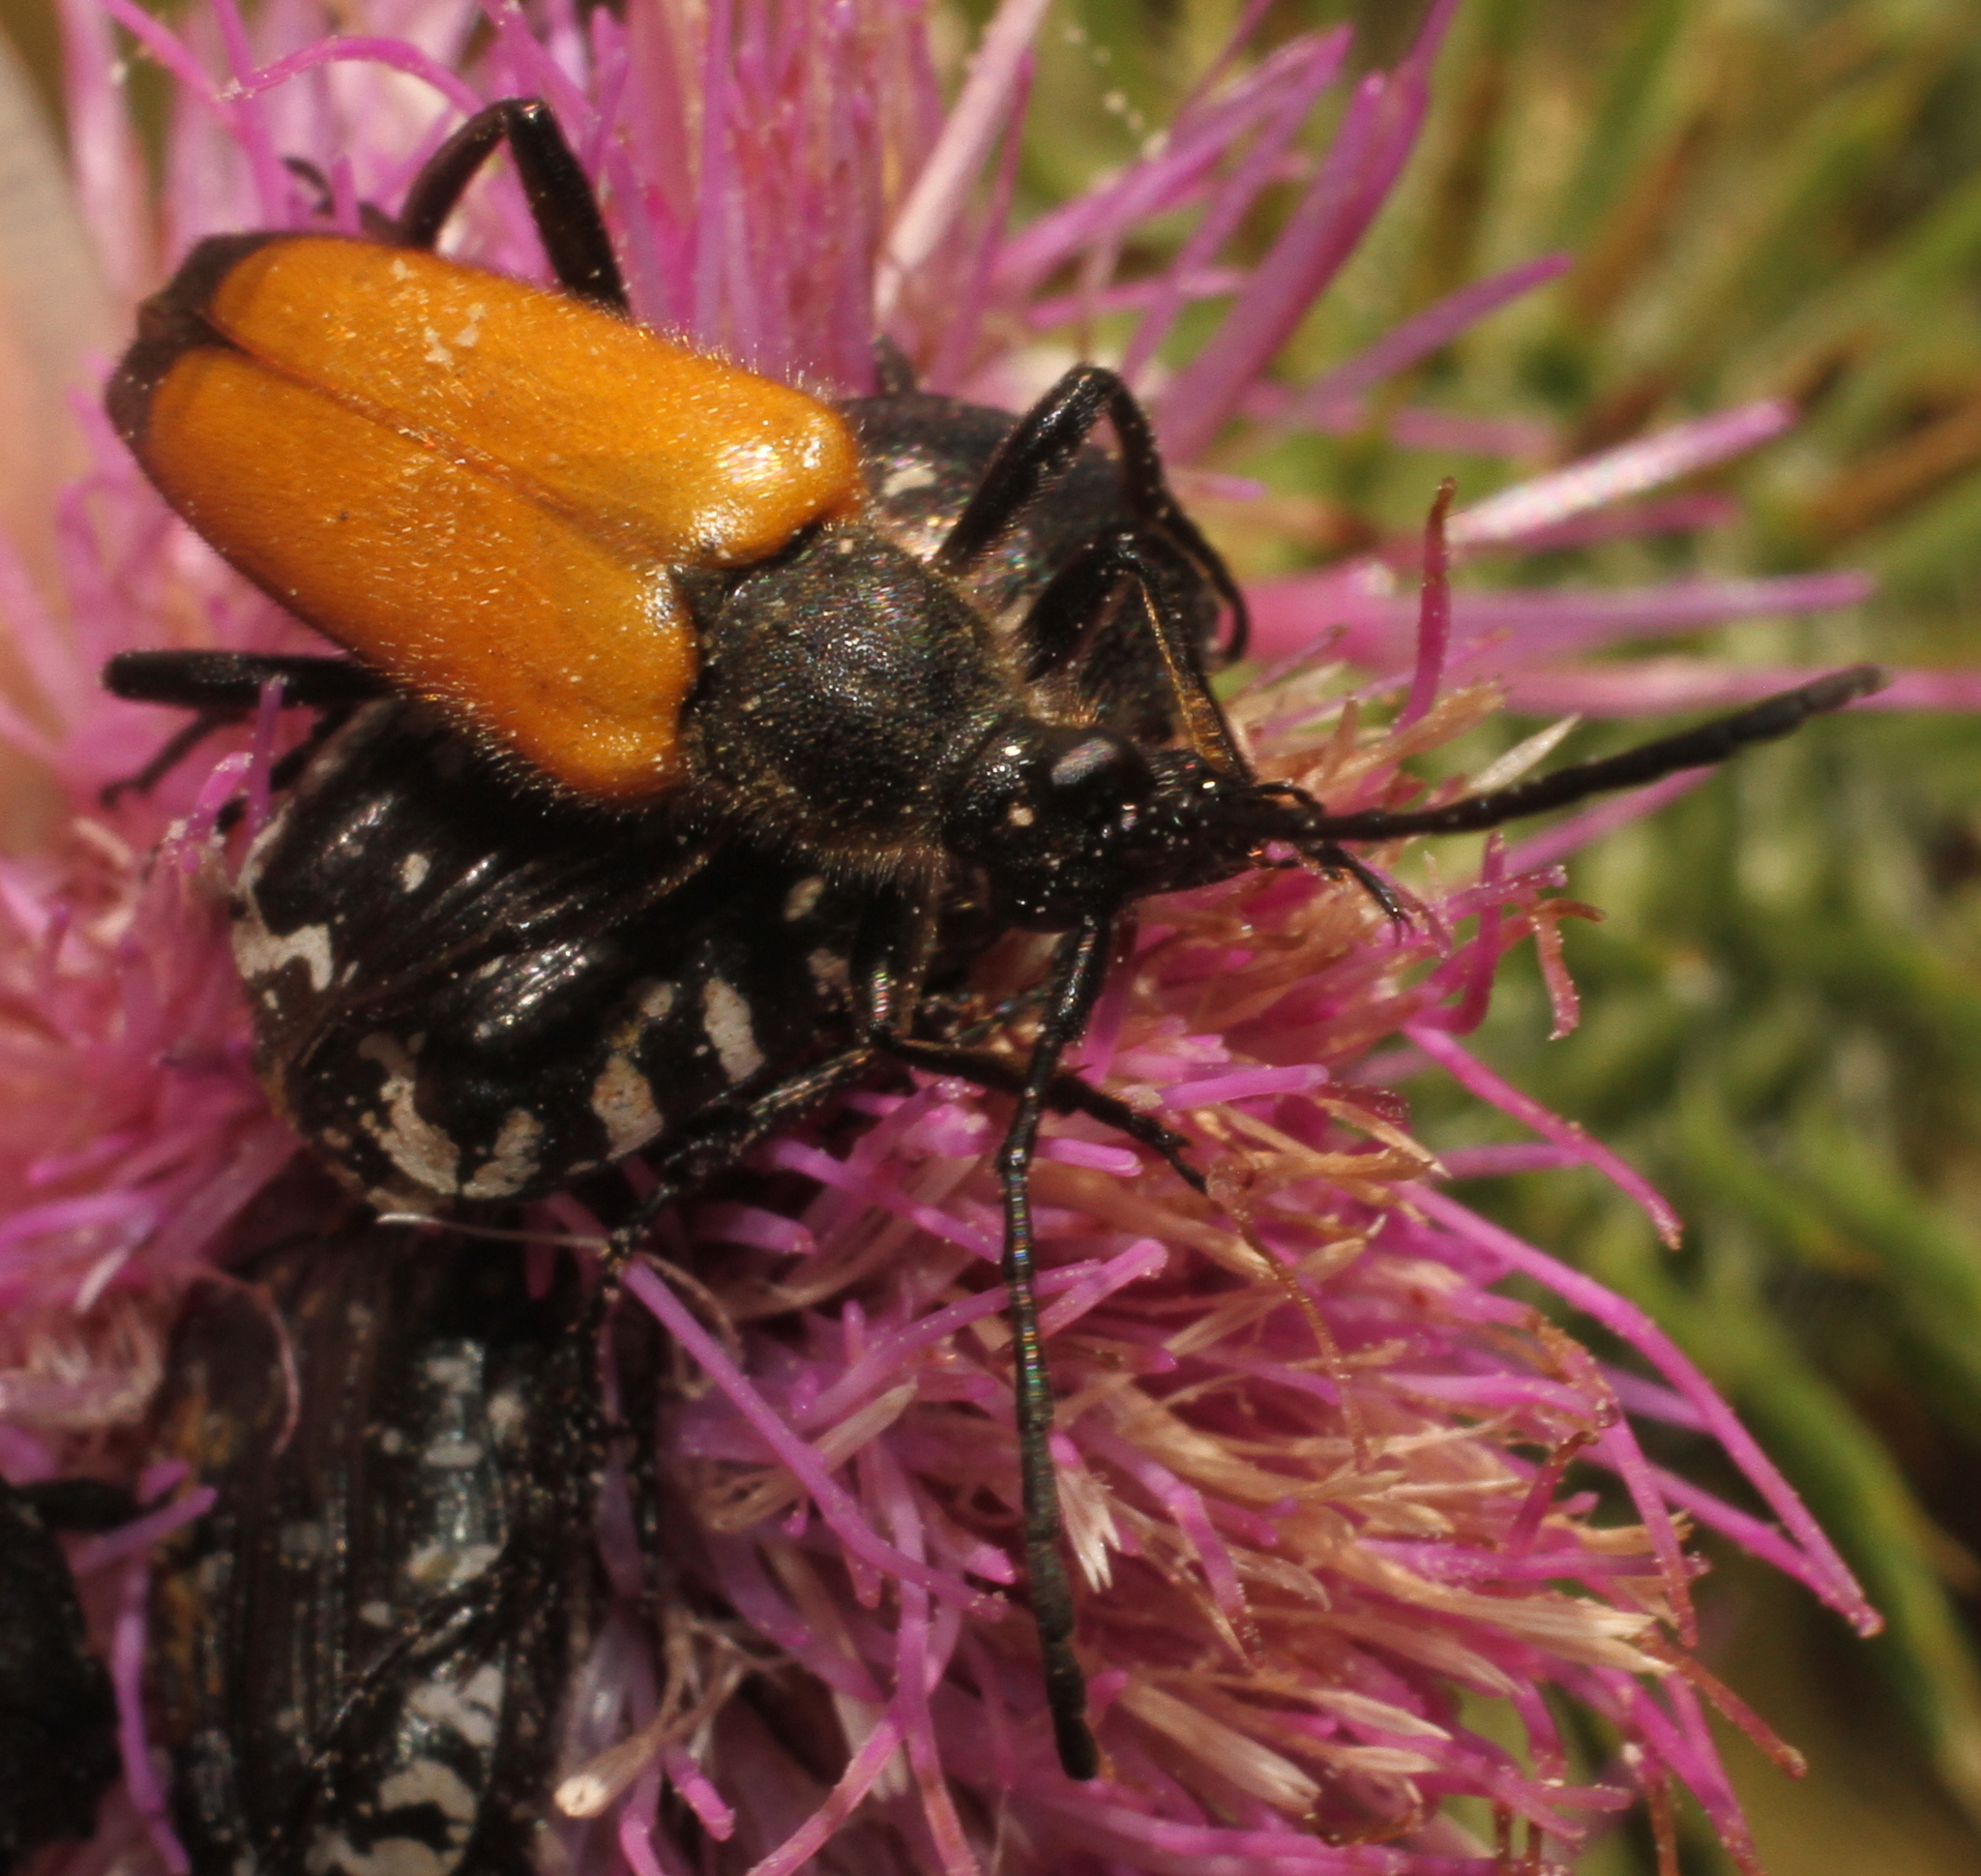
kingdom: Animalia
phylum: Arthropoda
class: Insecta
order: Coleoptera
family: Cerambycidae
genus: Paracorymbia
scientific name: Paracorymbia fulva
